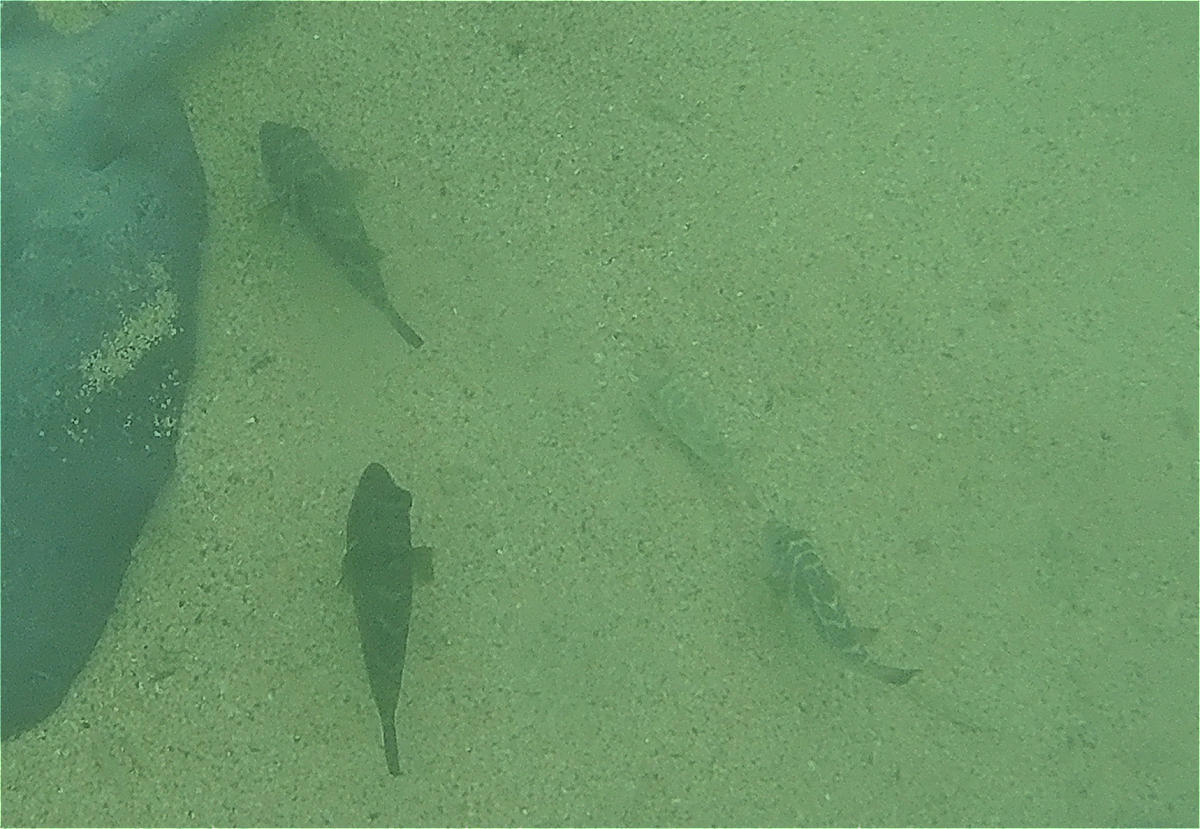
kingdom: Animalia
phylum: Chordata
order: Tetraodontiformes
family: Tetraodontidae
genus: Sphoeroides
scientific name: Sphoeroides annulatus
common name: Bullseye puffer
